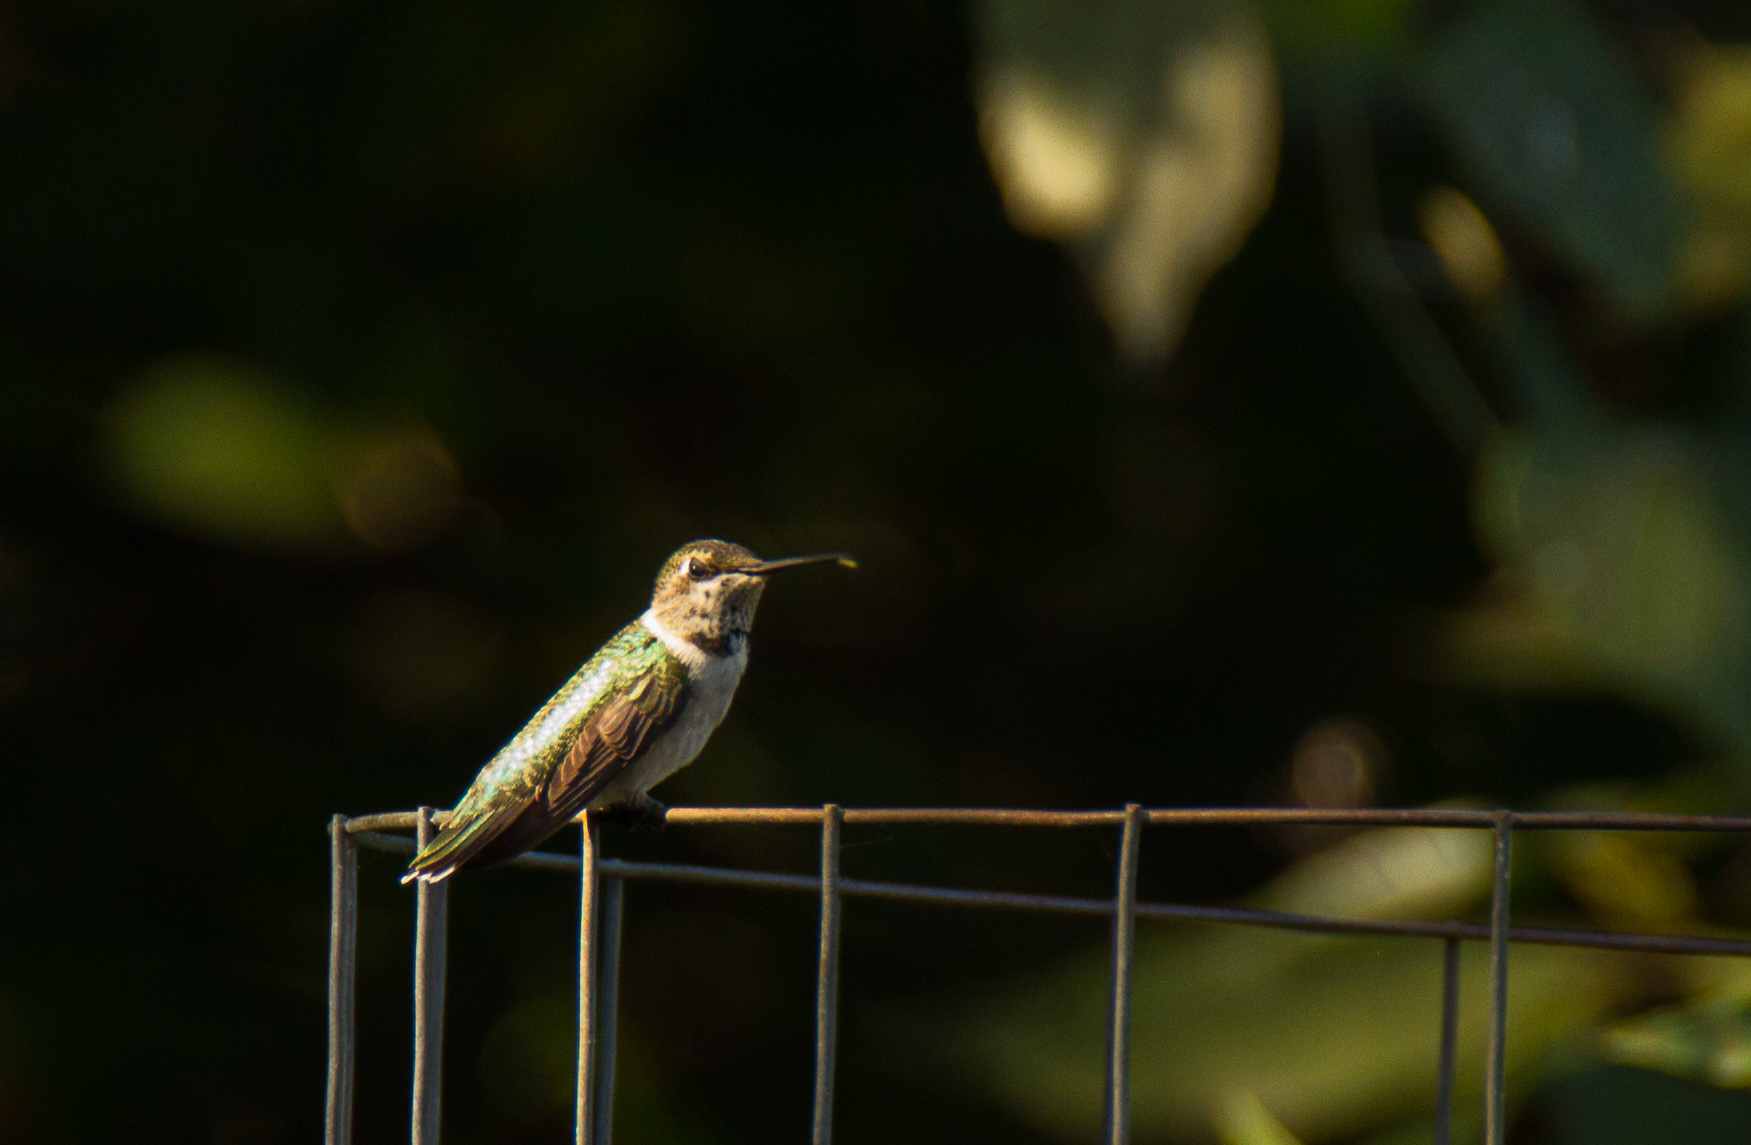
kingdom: Animalia
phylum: Chordata
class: Aves
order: Apodiformes
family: Trochilidae
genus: Archilochus
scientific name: Archilochus alexandri
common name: Black-chinned hummingbird
